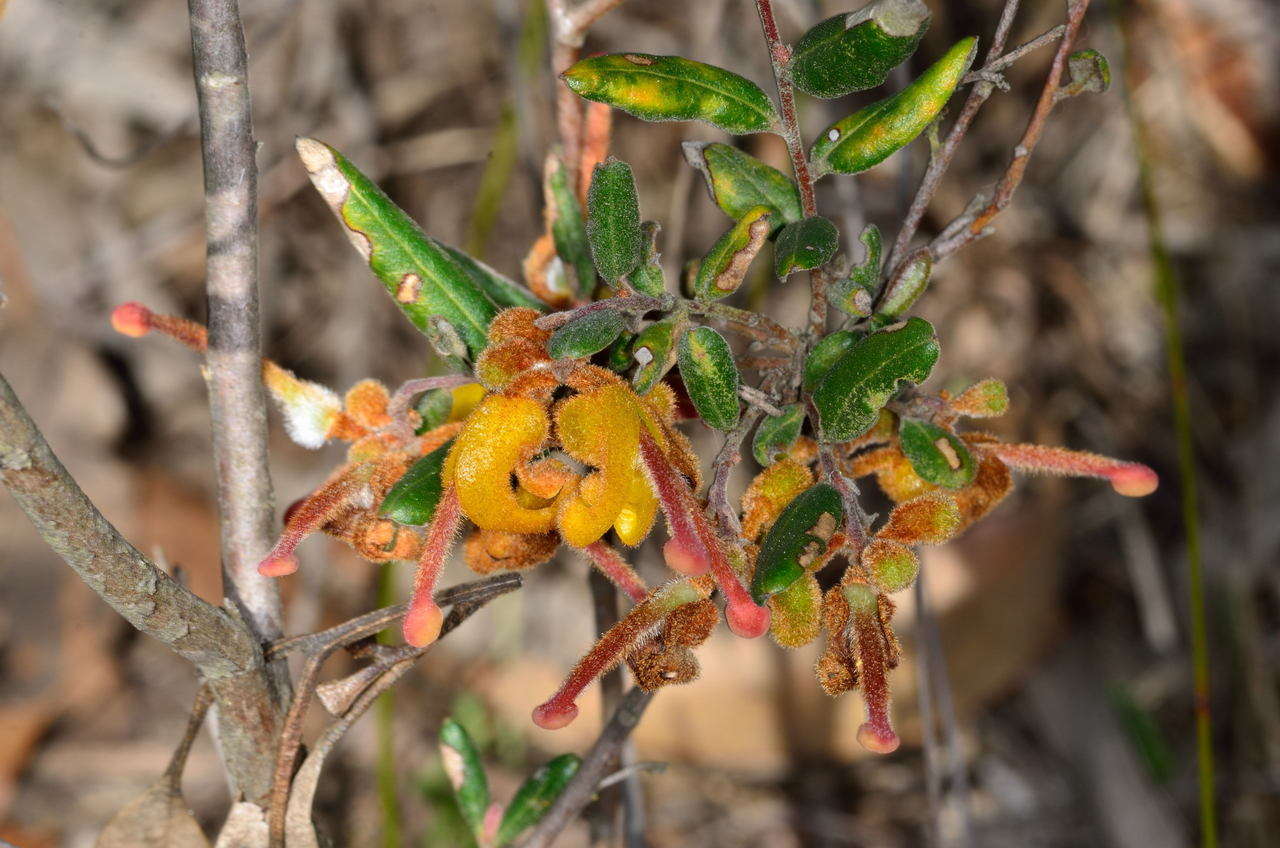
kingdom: Plantae
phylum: Tracheophyta
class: Magnoliopsida
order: Proteales
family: Proteaceae
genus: Grevillea
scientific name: Grevillea chrysophaea
